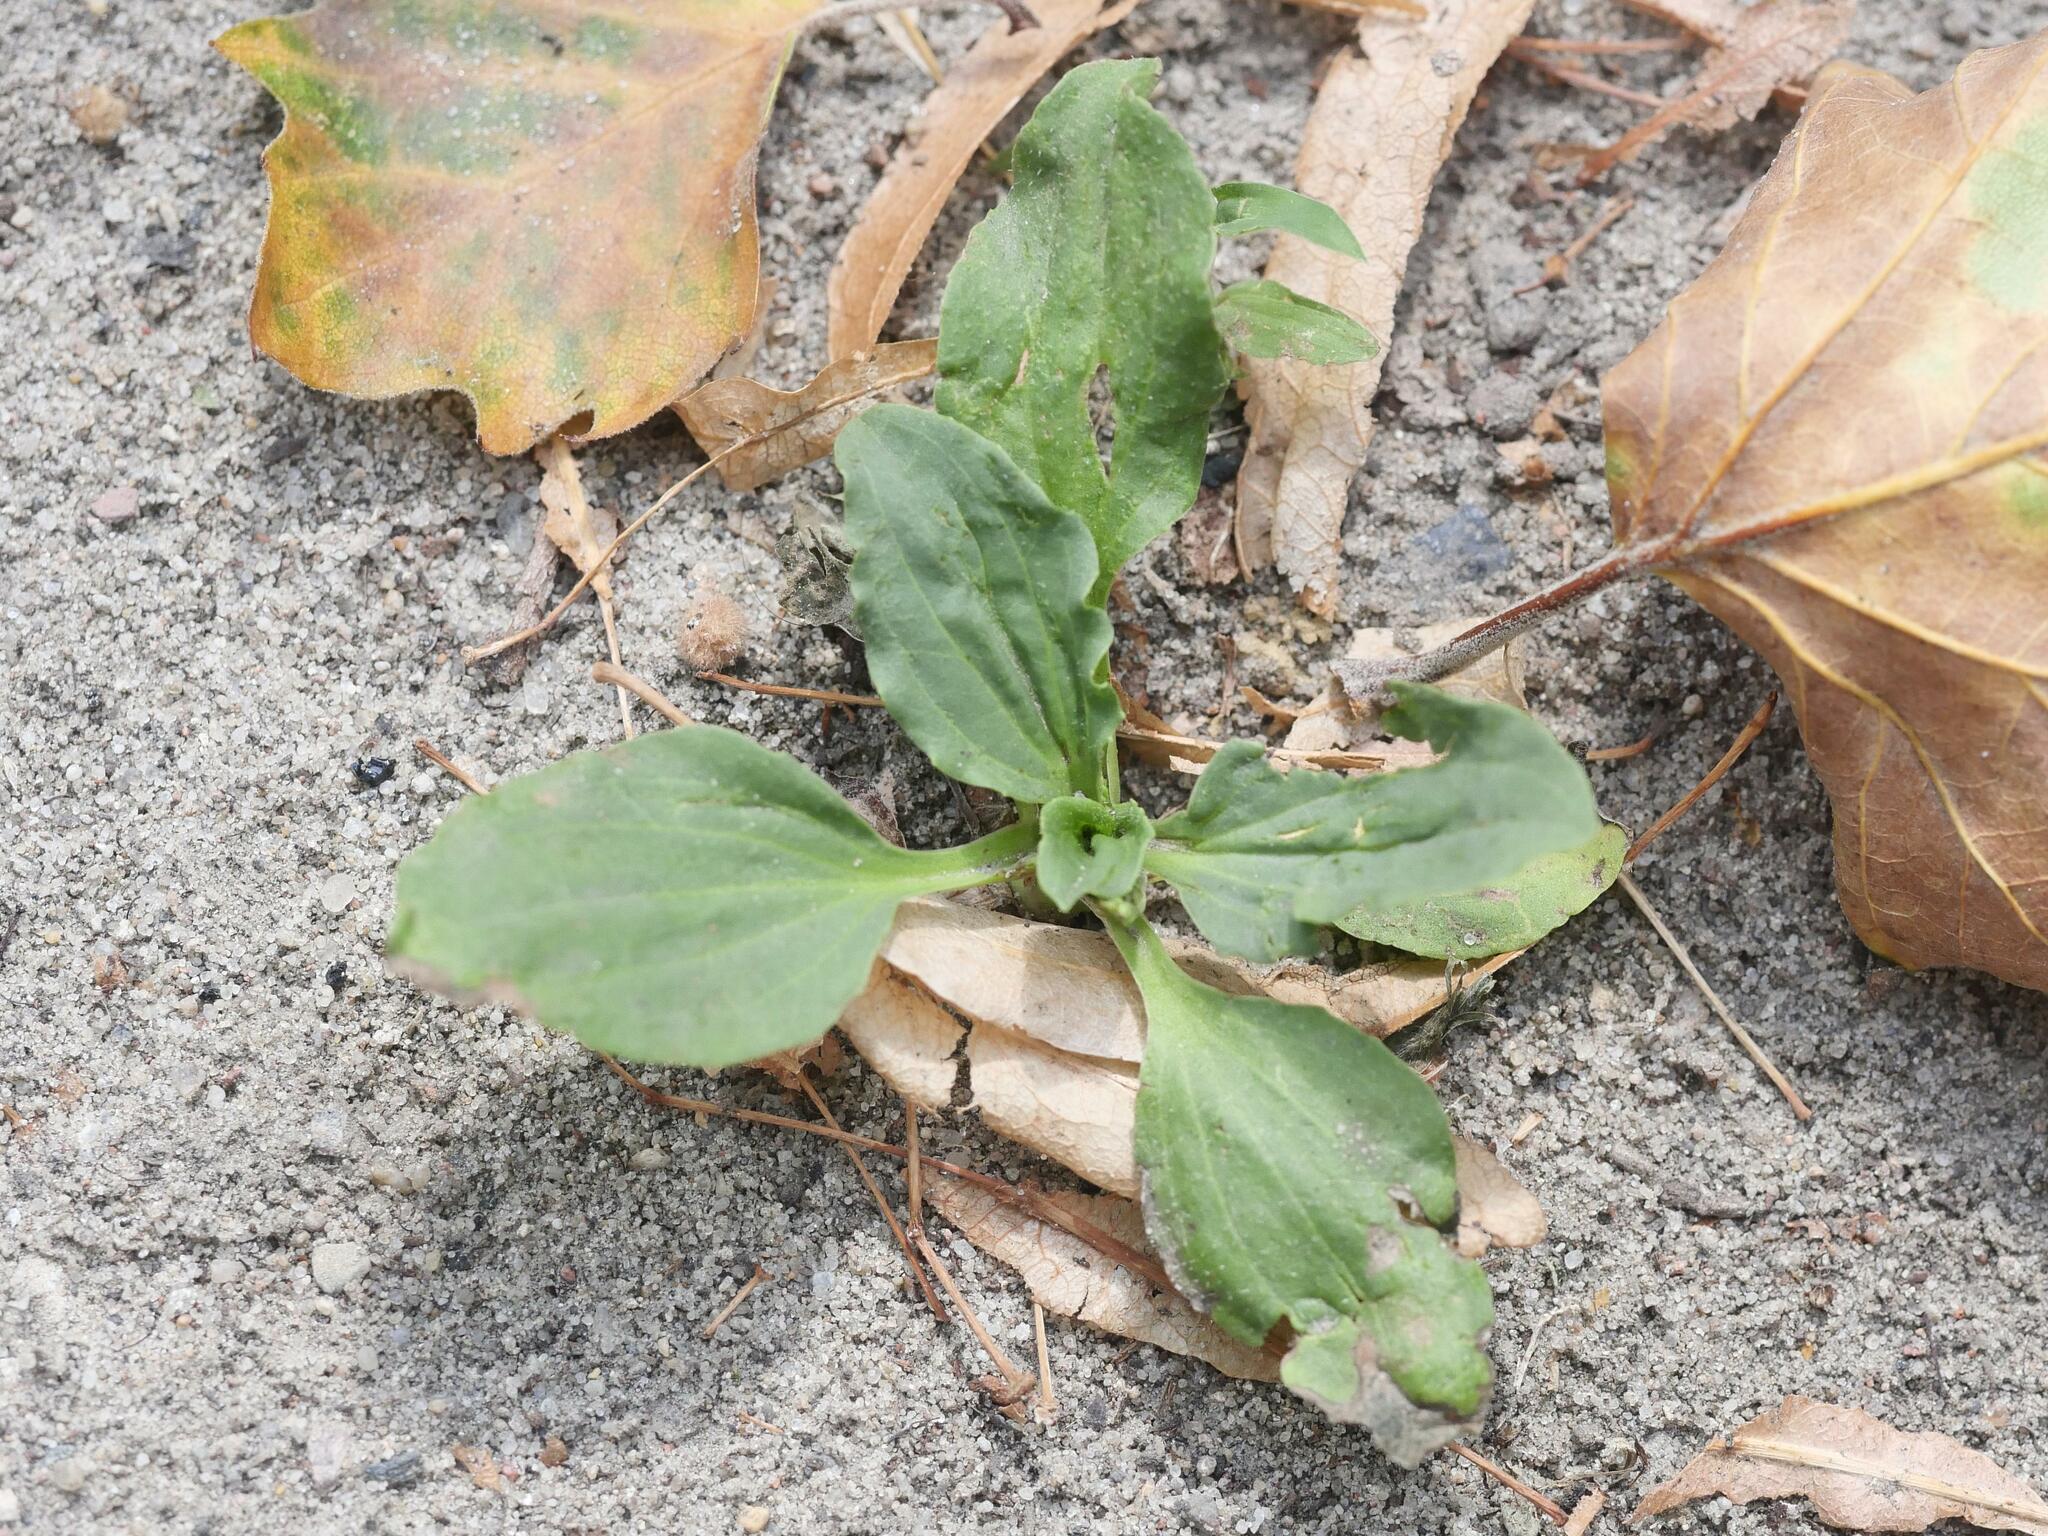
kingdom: Plantae
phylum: Tracheophyta
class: Magnoliopsida
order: Lamiales
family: Plantaginaceae
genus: Plantago
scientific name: Plantago major
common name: Common plantain
